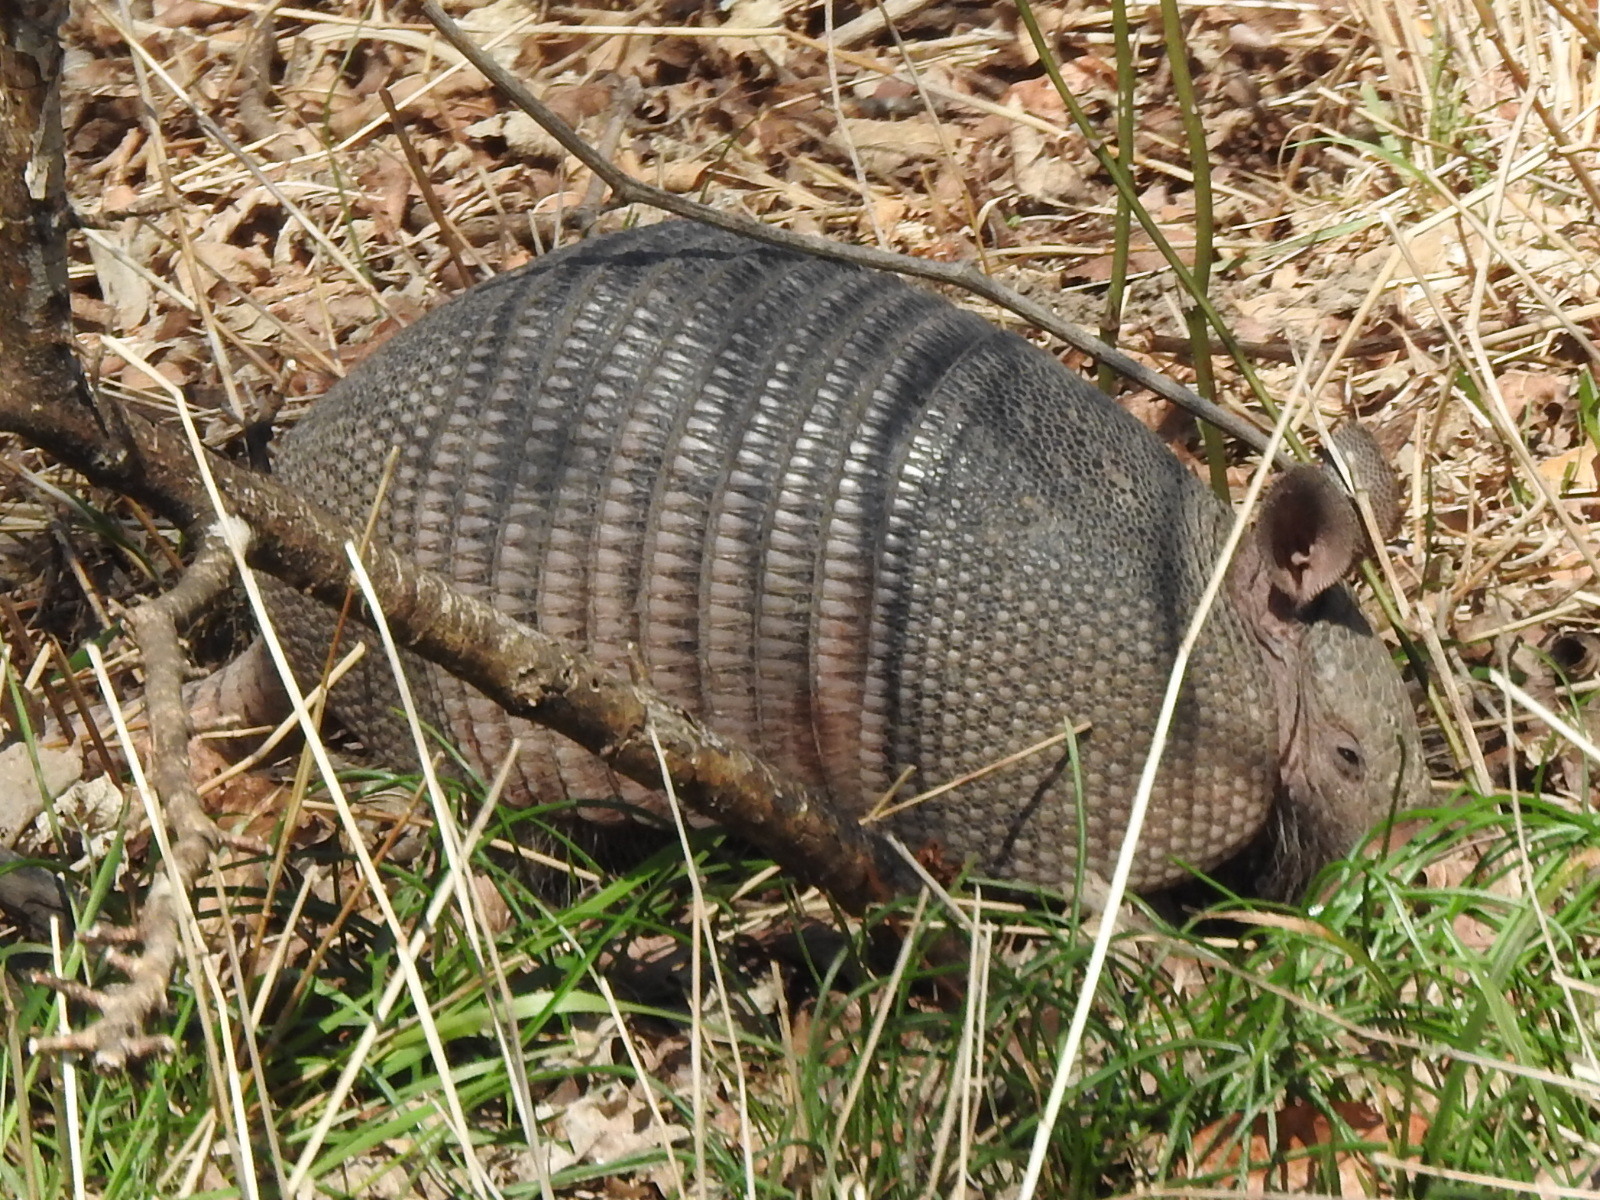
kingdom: Animalia
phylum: Chordata
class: Mammalia
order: Cingulata
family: Dasypodidae
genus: Dasypus
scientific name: Dasypus novemcinctus
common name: Nine-banded armadillo
